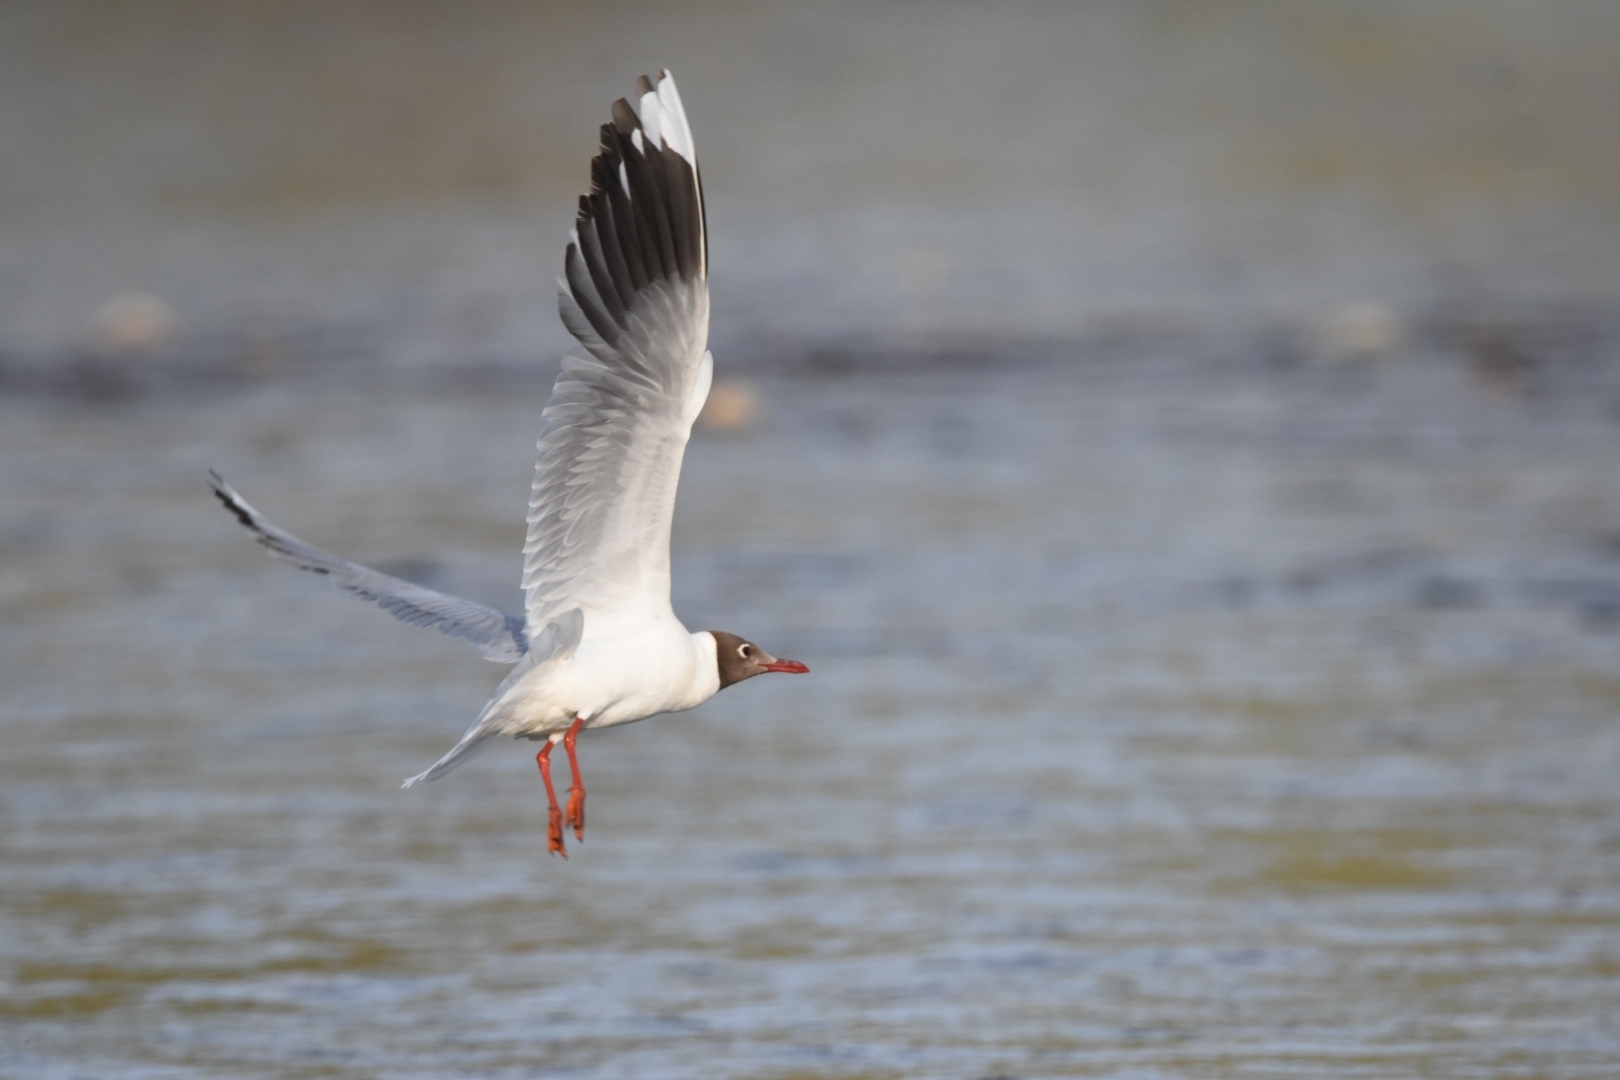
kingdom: Animalia
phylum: Chordata
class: Aves
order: Charadriiformes
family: Laridae
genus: Chroicocephalus
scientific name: Chroicocephalus maculipennis
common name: Brown-hooded gull
